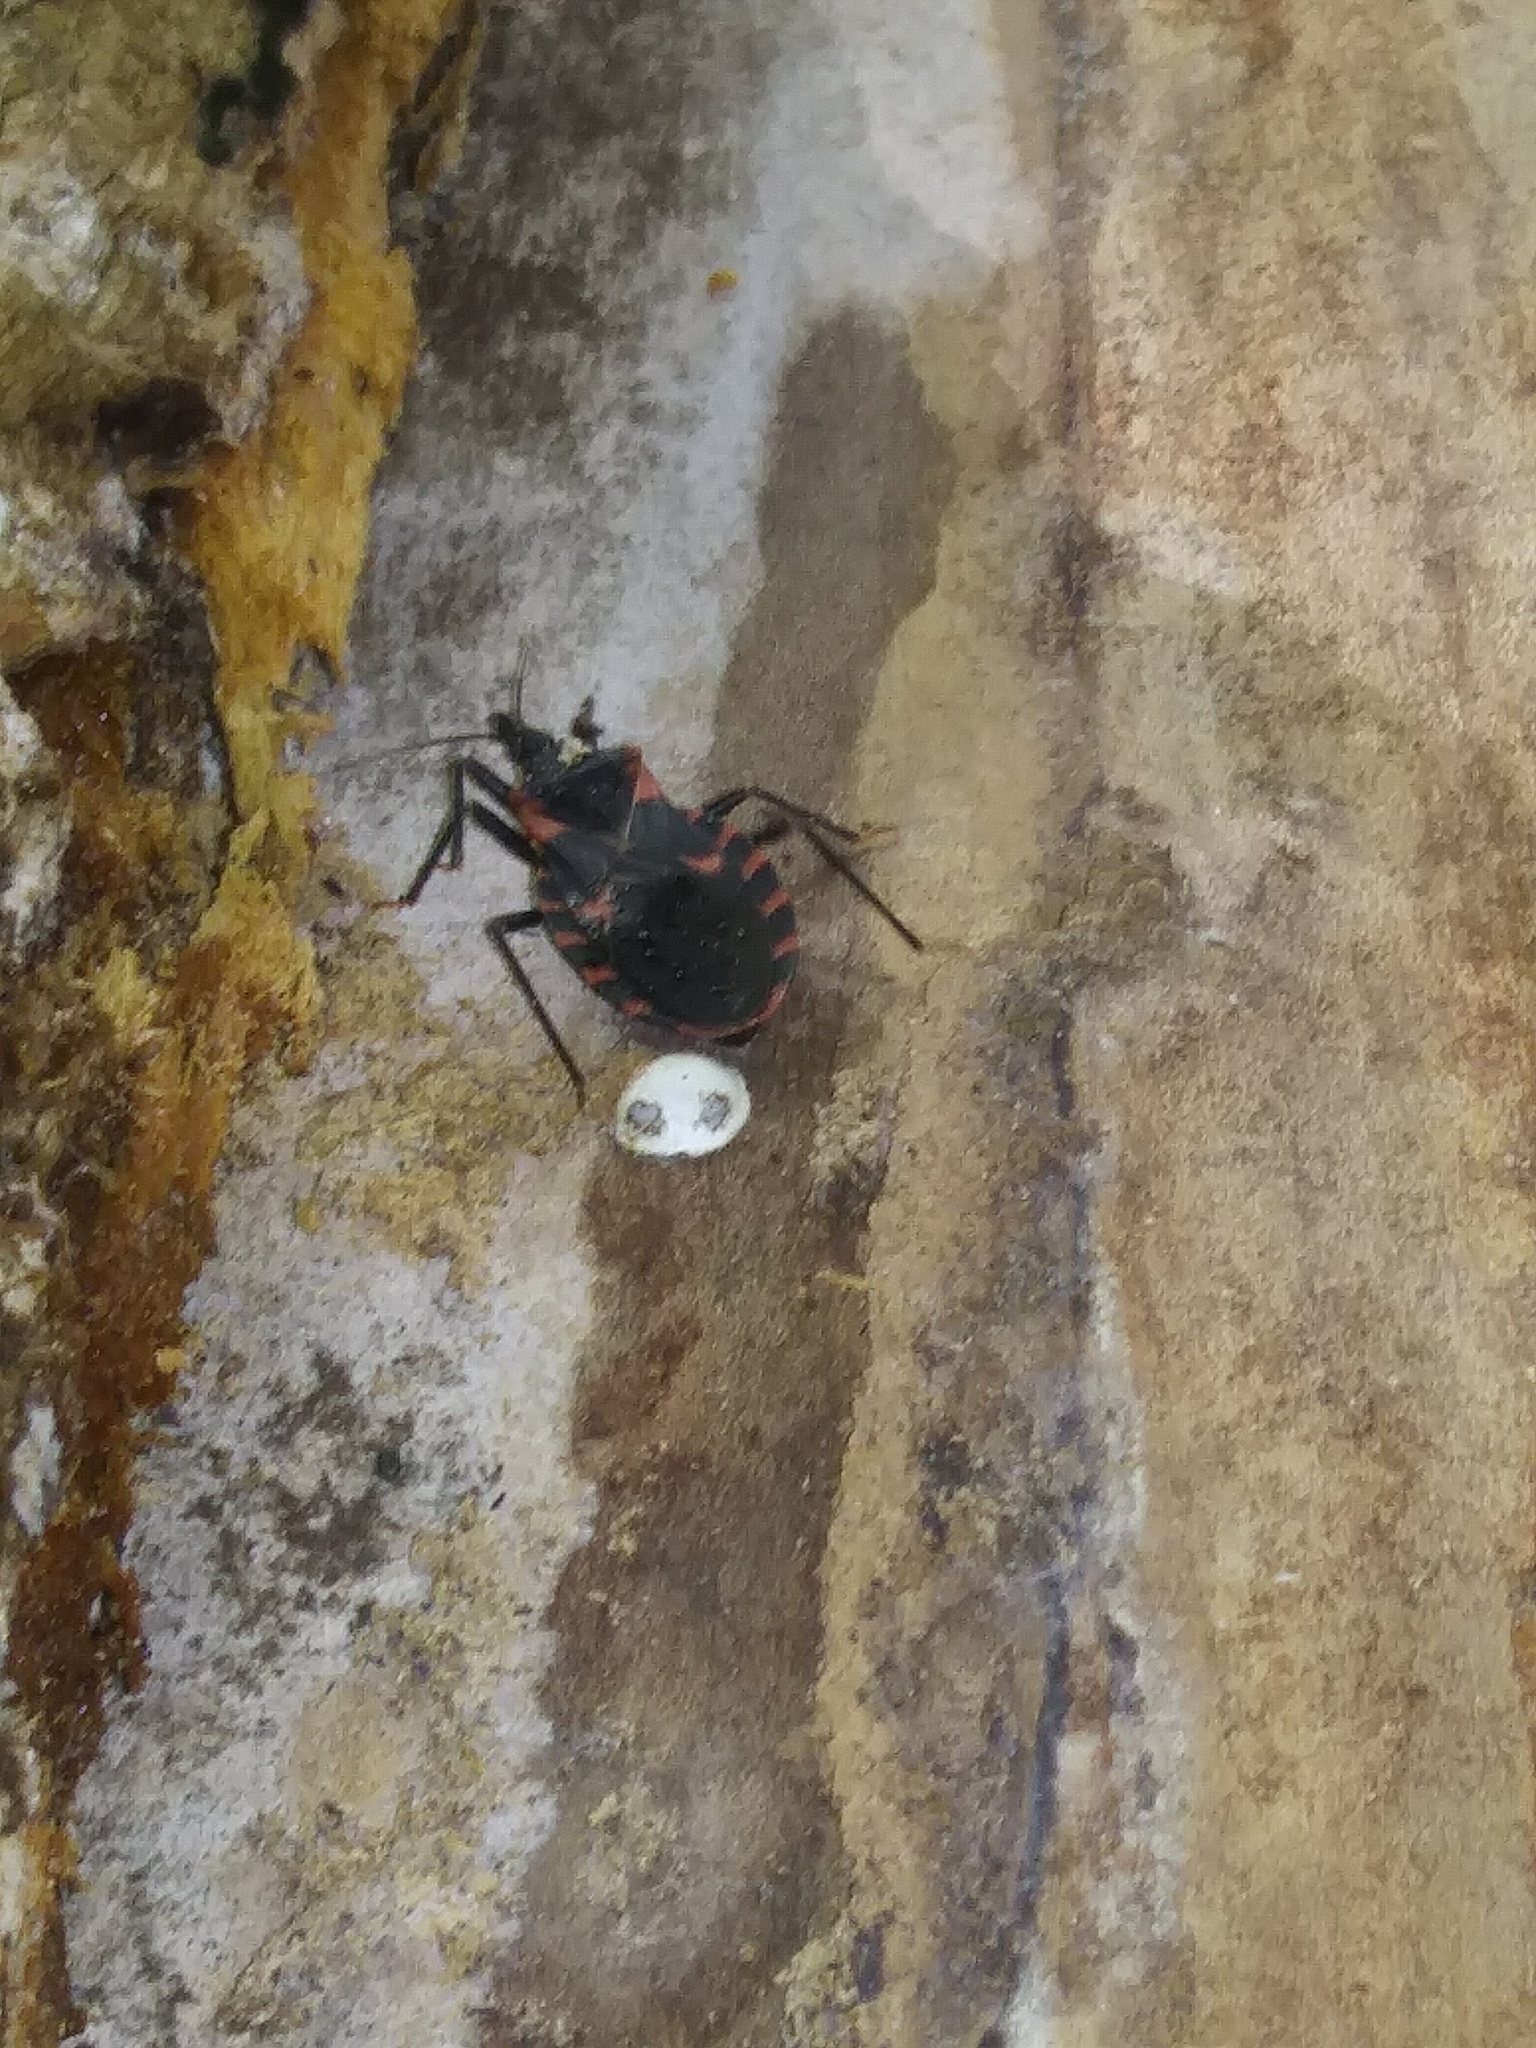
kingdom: Animalia
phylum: Arthropoda
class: Insecta
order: Hemiptera
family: Reduviidae
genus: Triatoma
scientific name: Triatoma sanguisuga
